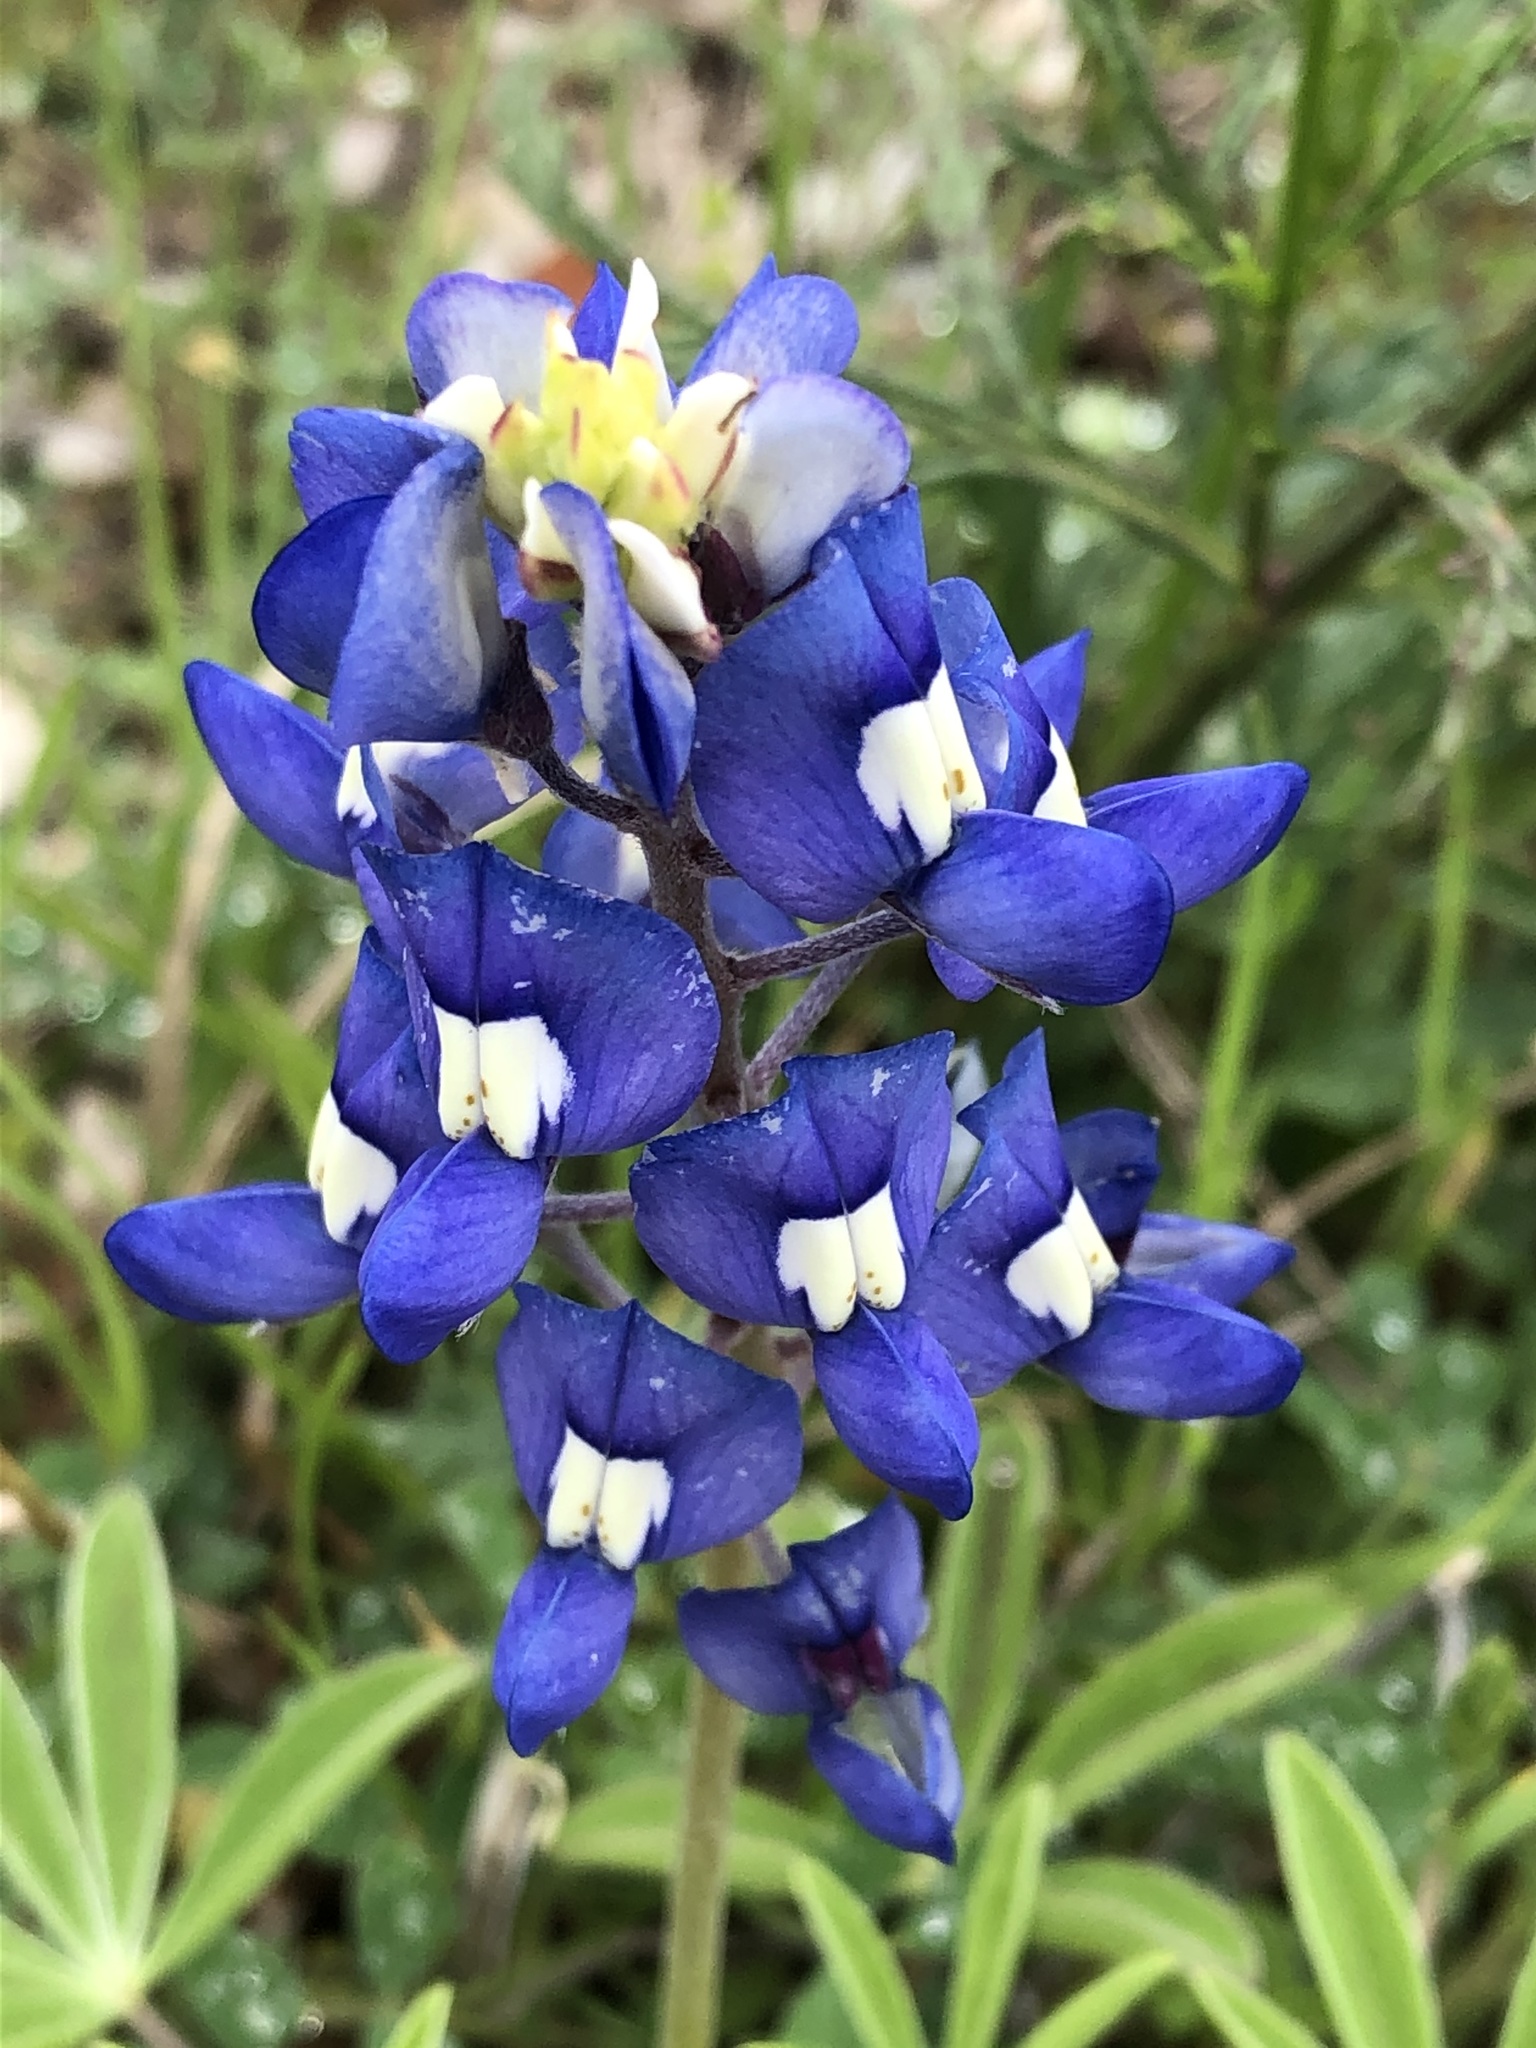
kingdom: Plantae
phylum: Tracheophyta
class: Magnoliopsida
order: Fabales
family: Fabaceae
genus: Lupinus
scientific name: Lupinus texensis
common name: Texas bluebonnet
